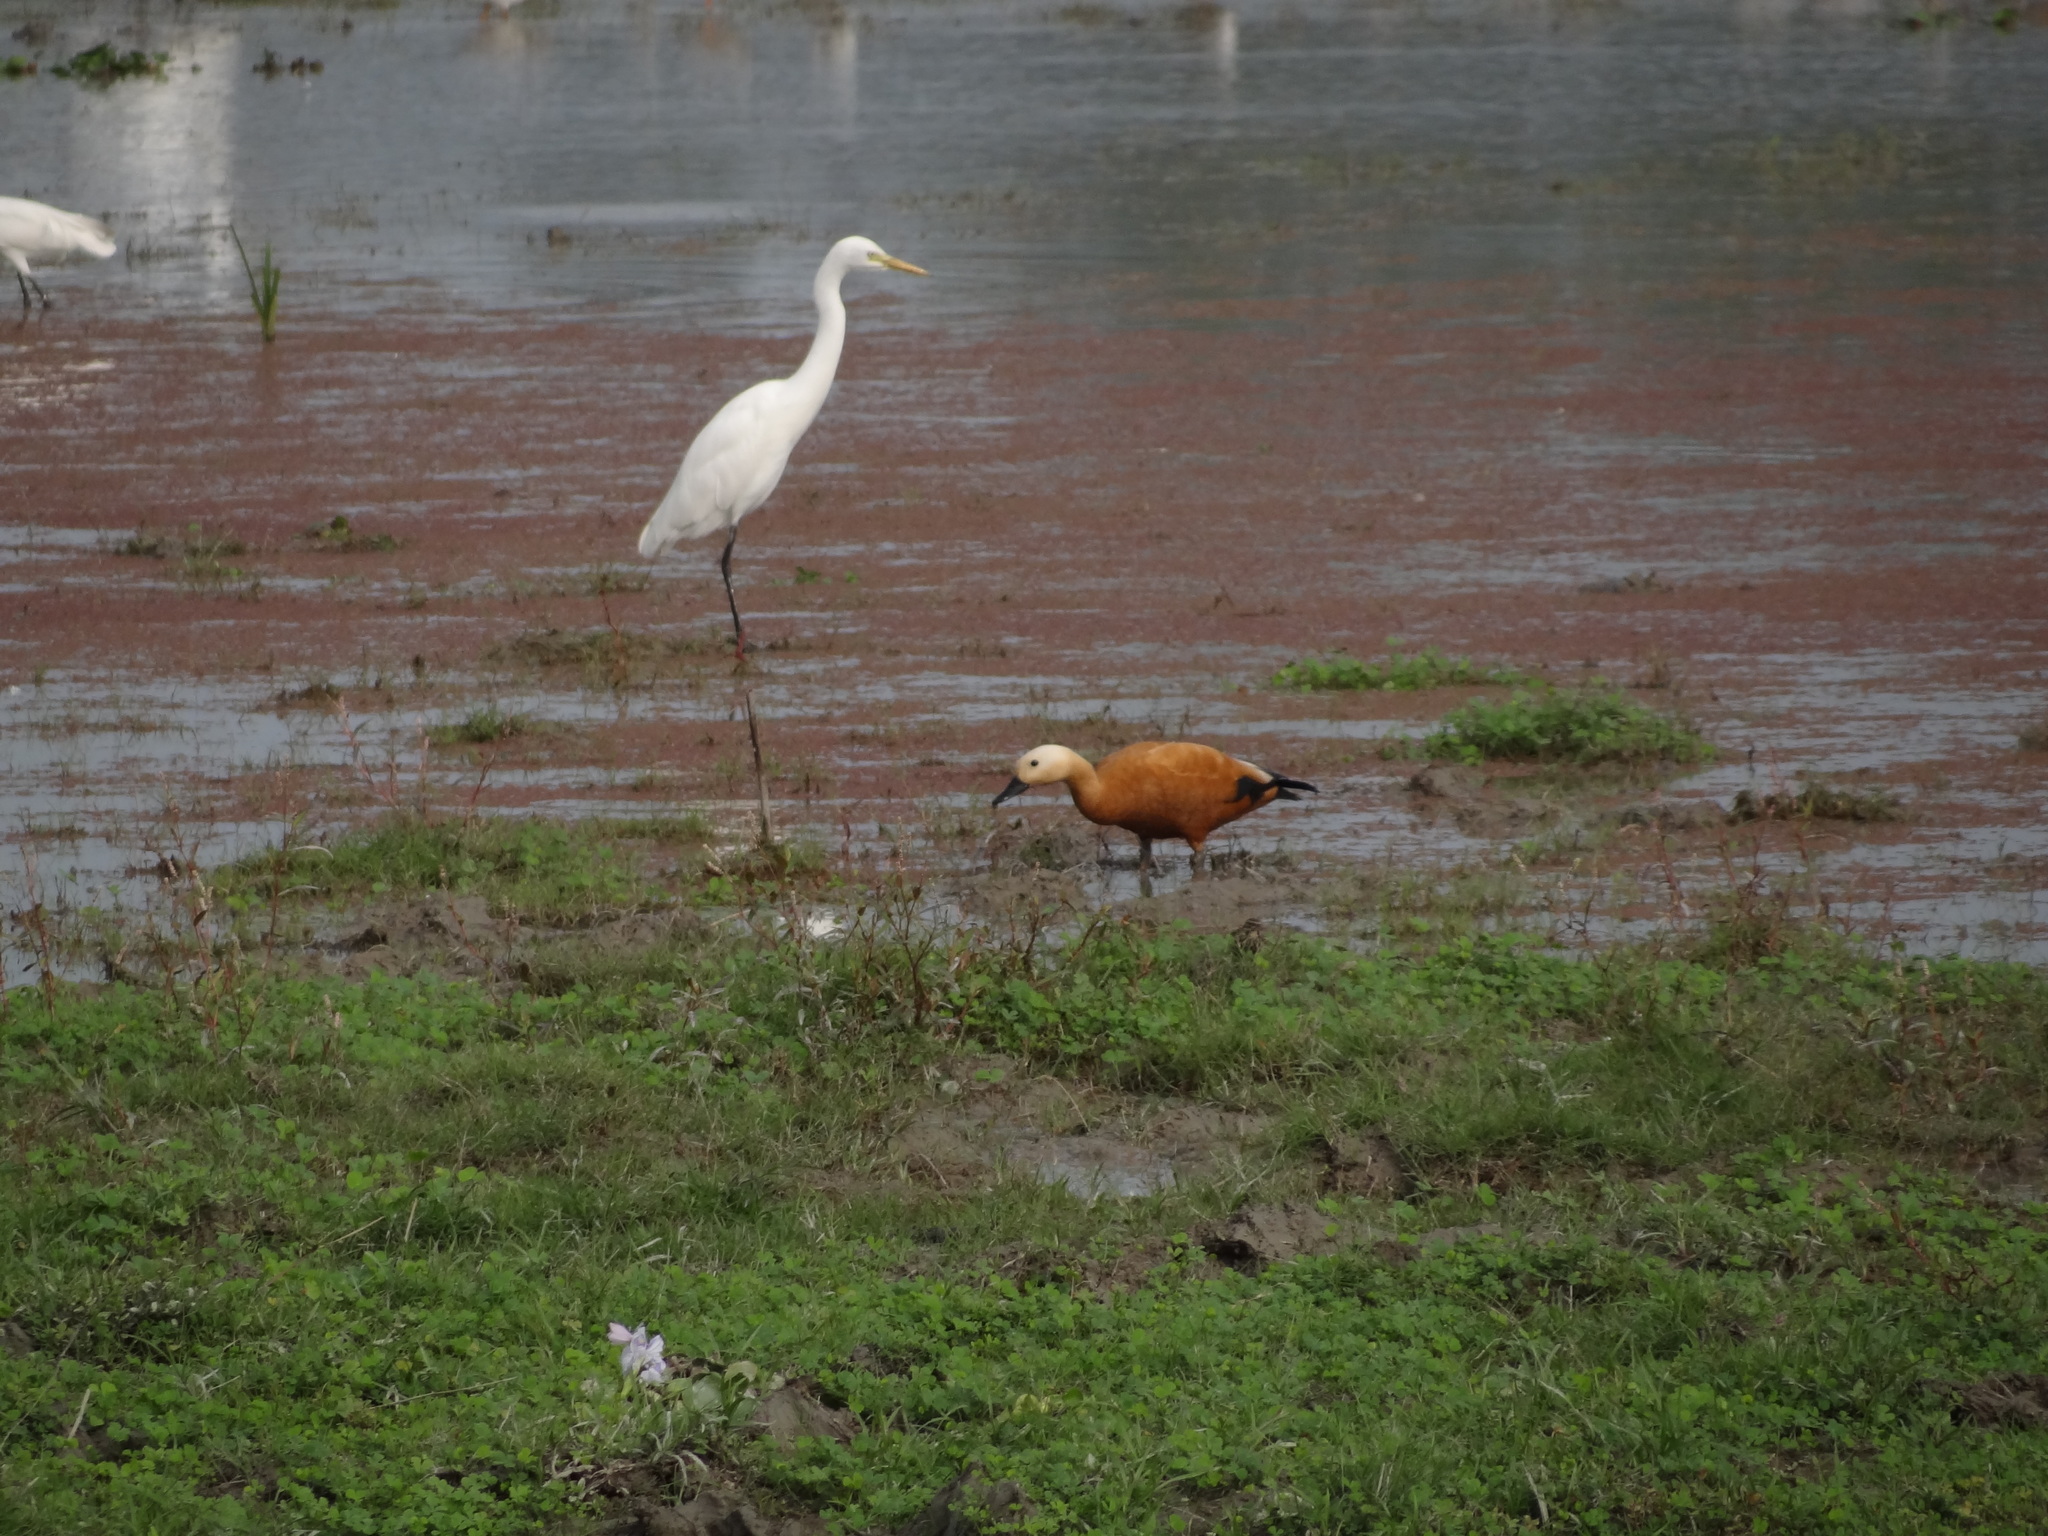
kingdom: Animalia
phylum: Chordata
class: Aves
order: Anseriformes
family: Anatidae
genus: Tadorna
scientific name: Tadorna ferruginea
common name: Ruddy shelduck
